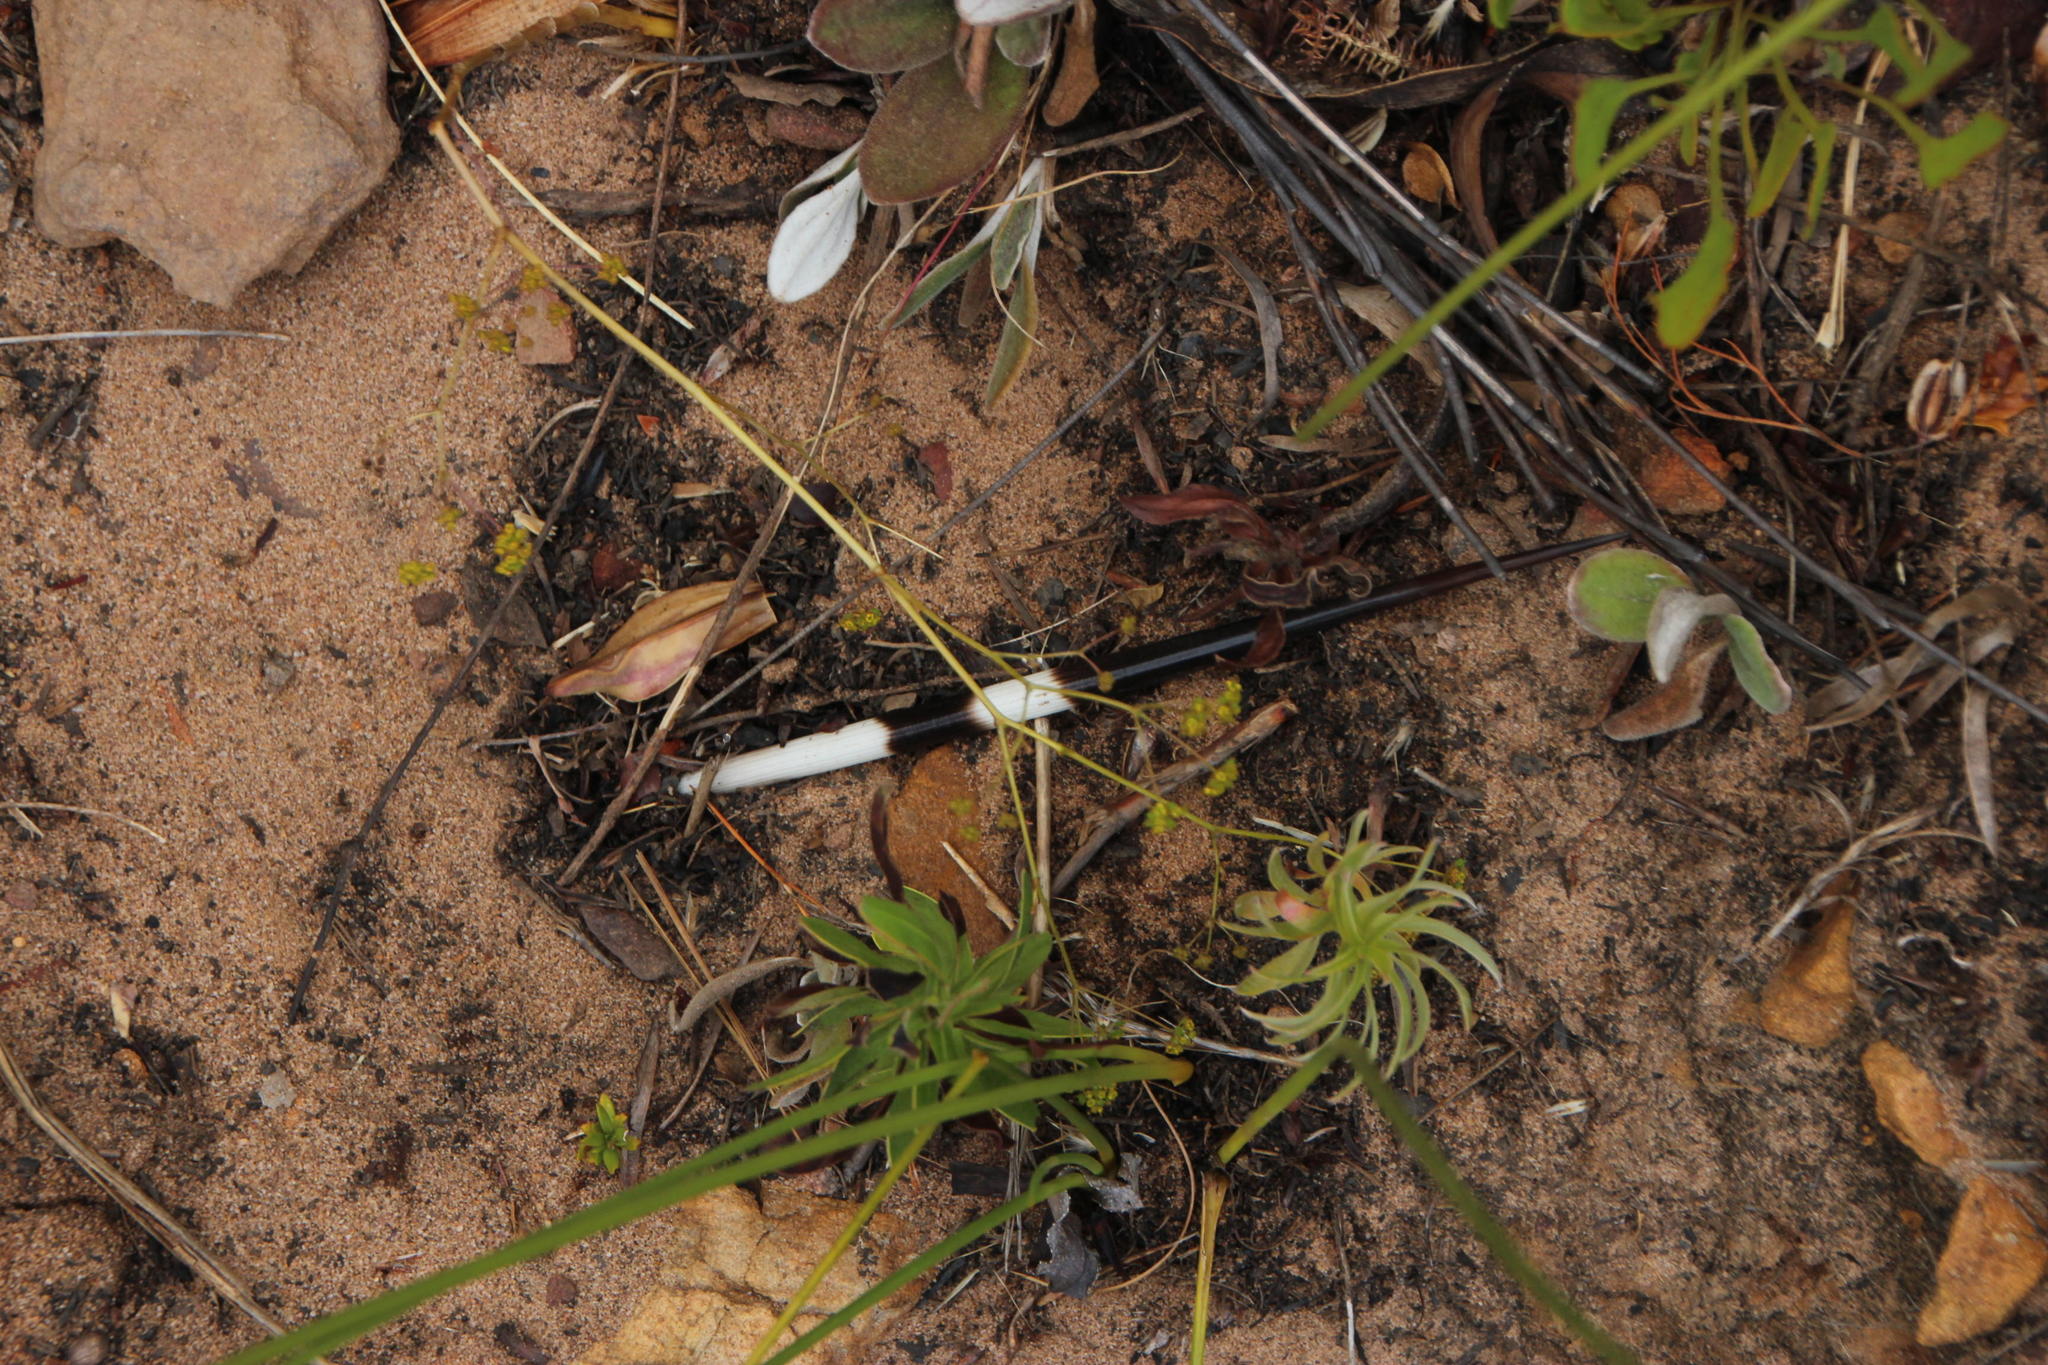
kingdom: Animalia
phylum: Chordata
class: Mammalia
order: Rodentia
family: Hystricidae
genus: Hystrix
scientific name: Hystrix africaeaustralis
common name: Cape porcupine
